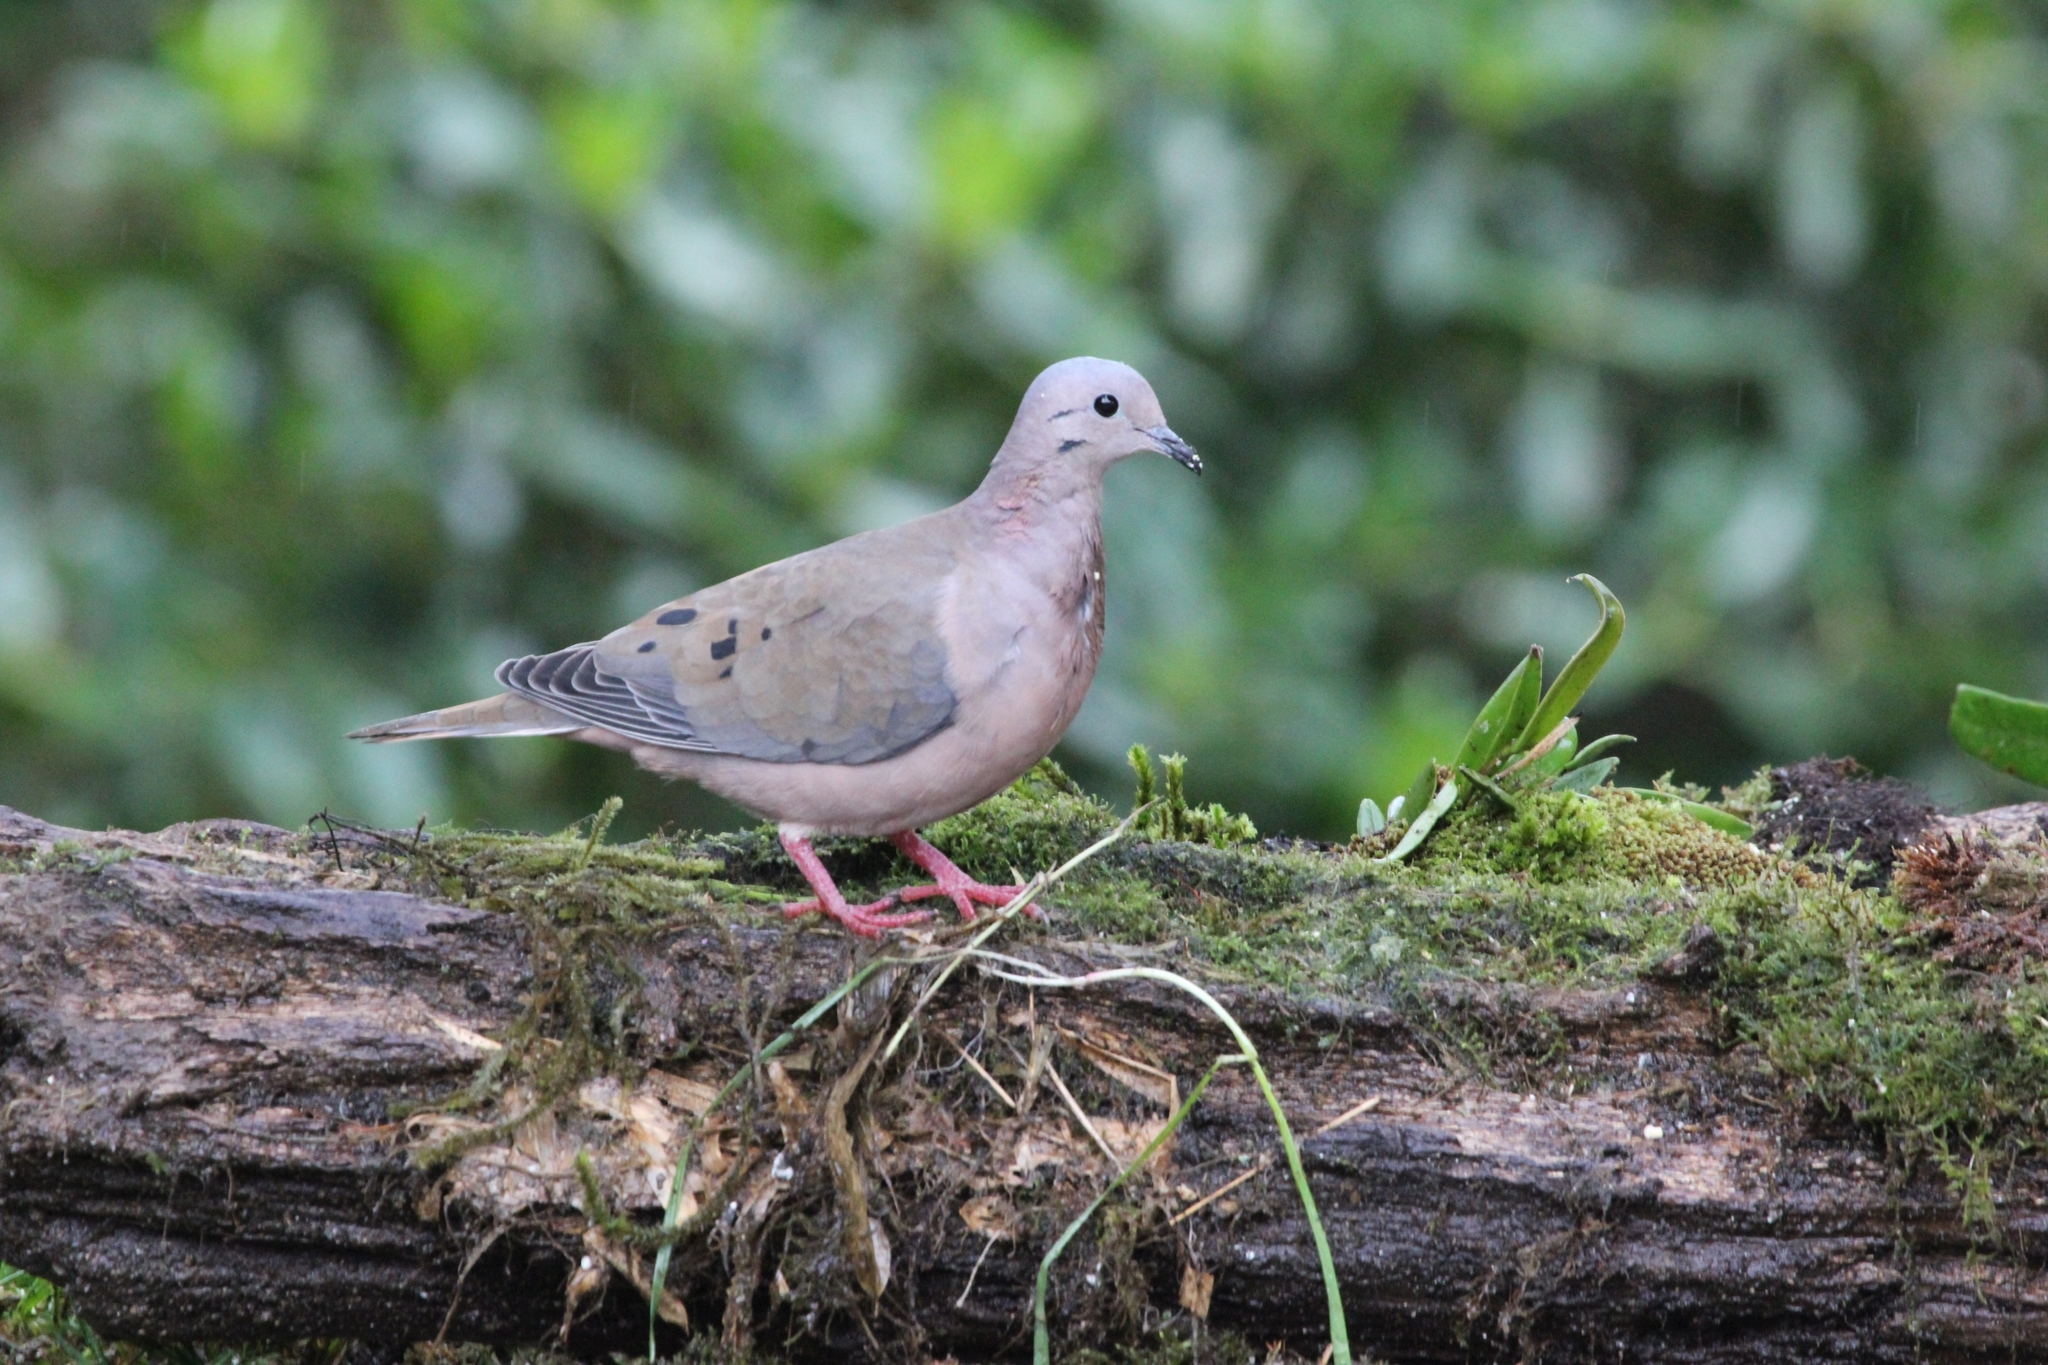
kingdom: Animalia
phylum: Chordata
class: Aves
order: Columbiformes
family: Columbidae
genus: Zenaida
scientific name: Zenaida auriculata
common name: Eared dove
